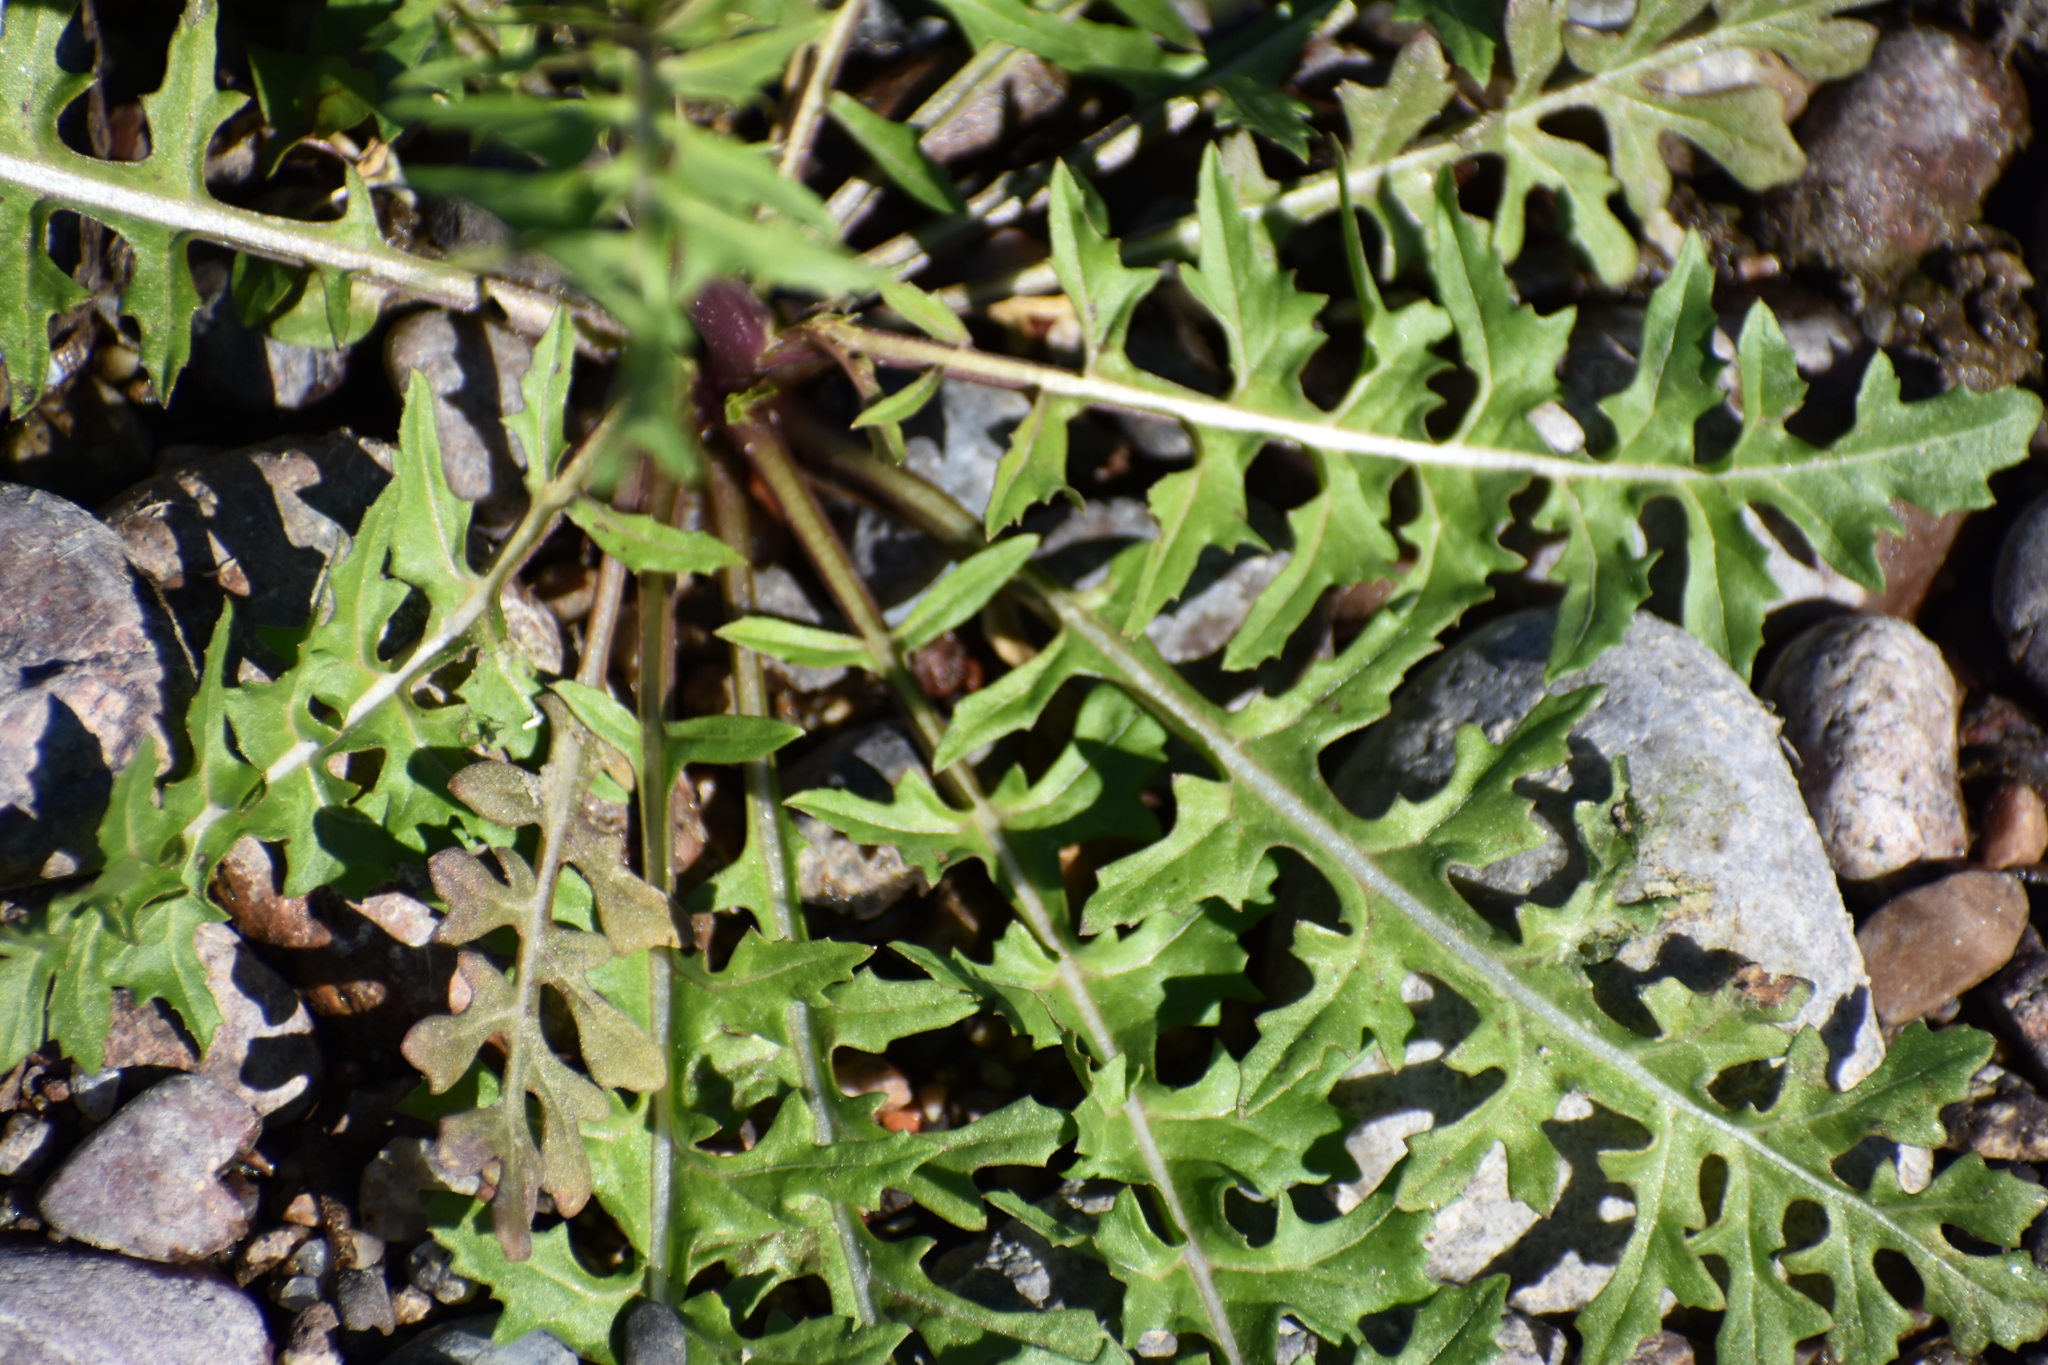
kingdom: Plantae
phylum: Tracheophyta
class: Magnoliopsida
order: Brassicales
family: Brassicaceae
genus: Sisymbrium
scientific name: Sisymbrium irio
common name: London rocket
